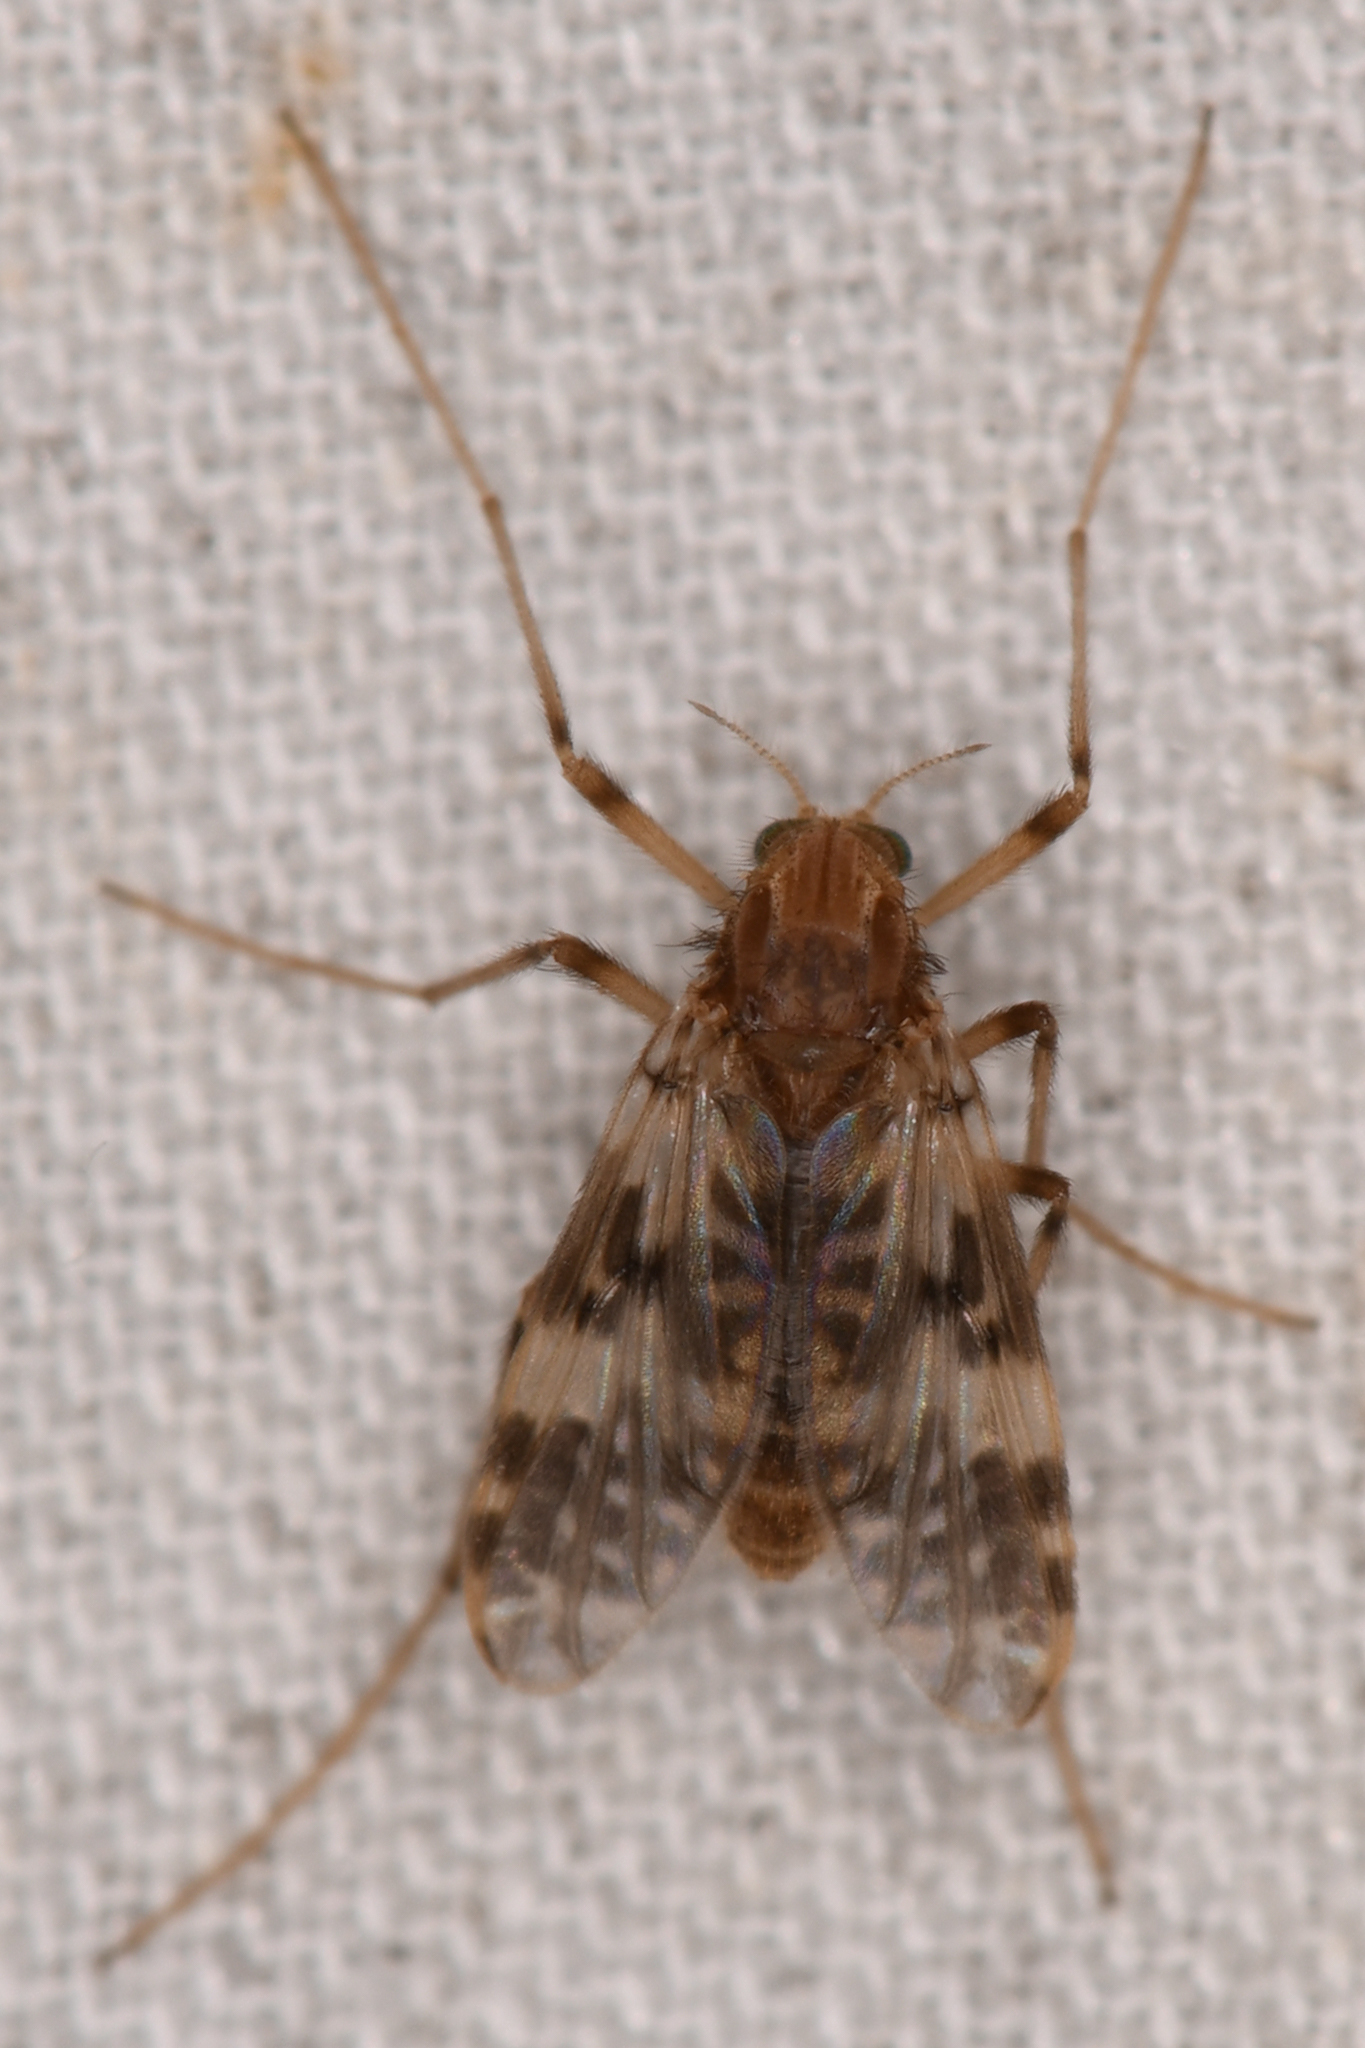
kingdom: Animalia
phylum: Arthropoda
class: Insecta
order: Diptera
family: Chironomidae
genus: Psectrotanypus
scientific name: Psectrotanypus dyari
